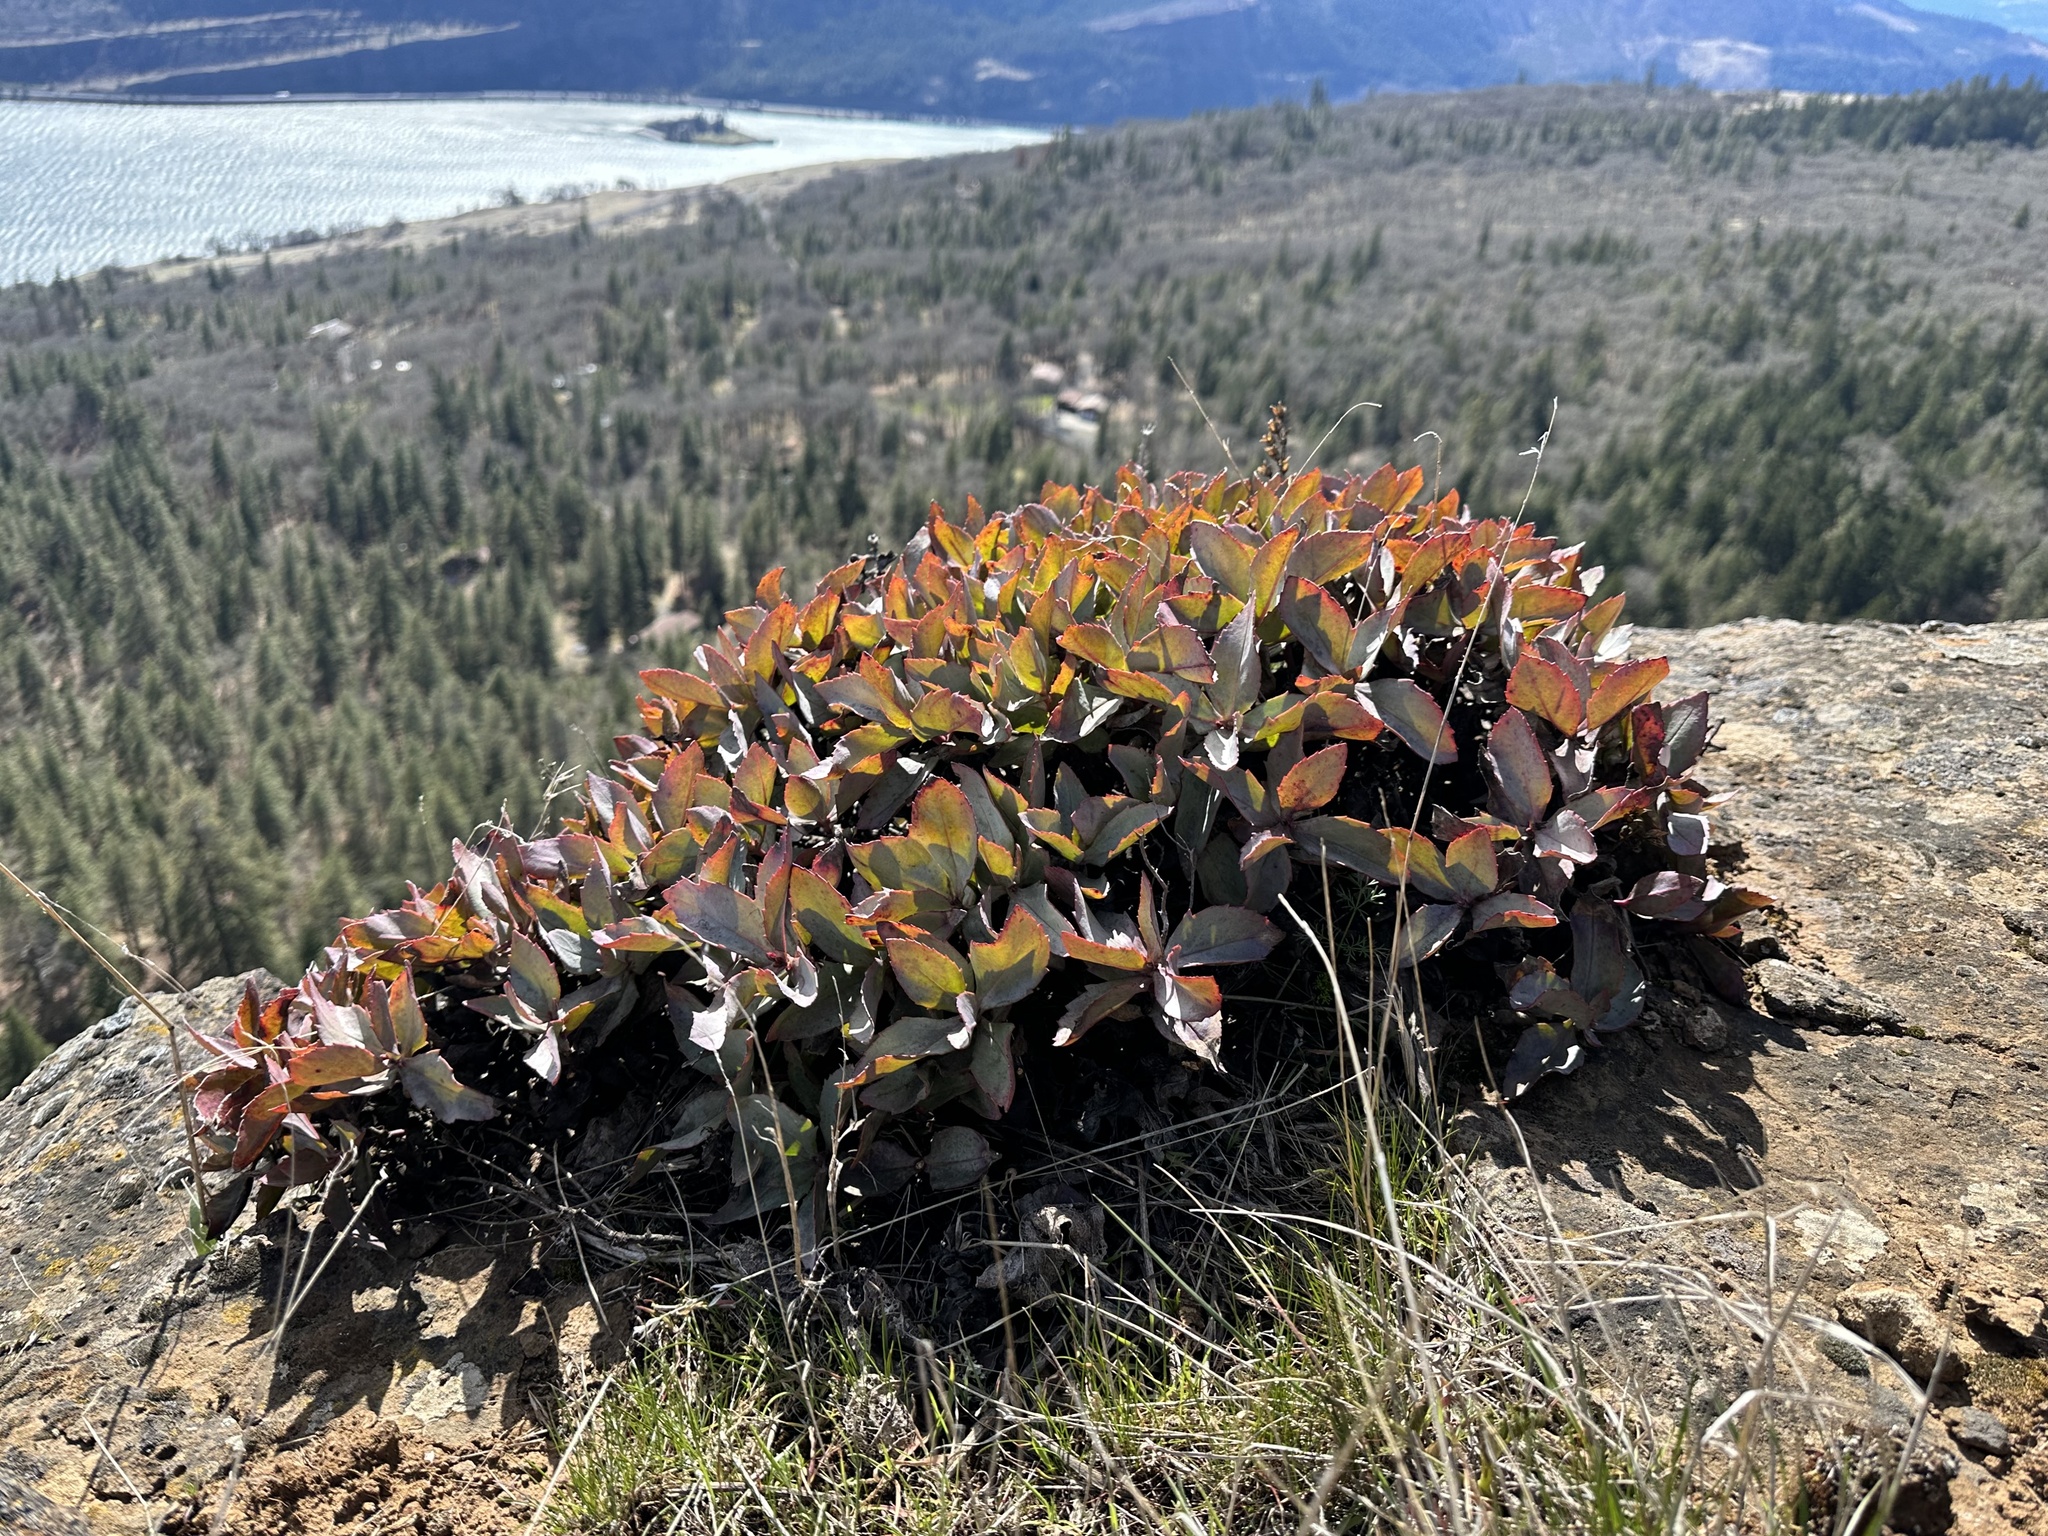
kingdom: Plantae
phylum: Tracheophyta
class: Magnoliopsida
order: Lamiales
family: Plantaginaceae
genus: Penstemon
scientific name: Penstemon barrettiae
